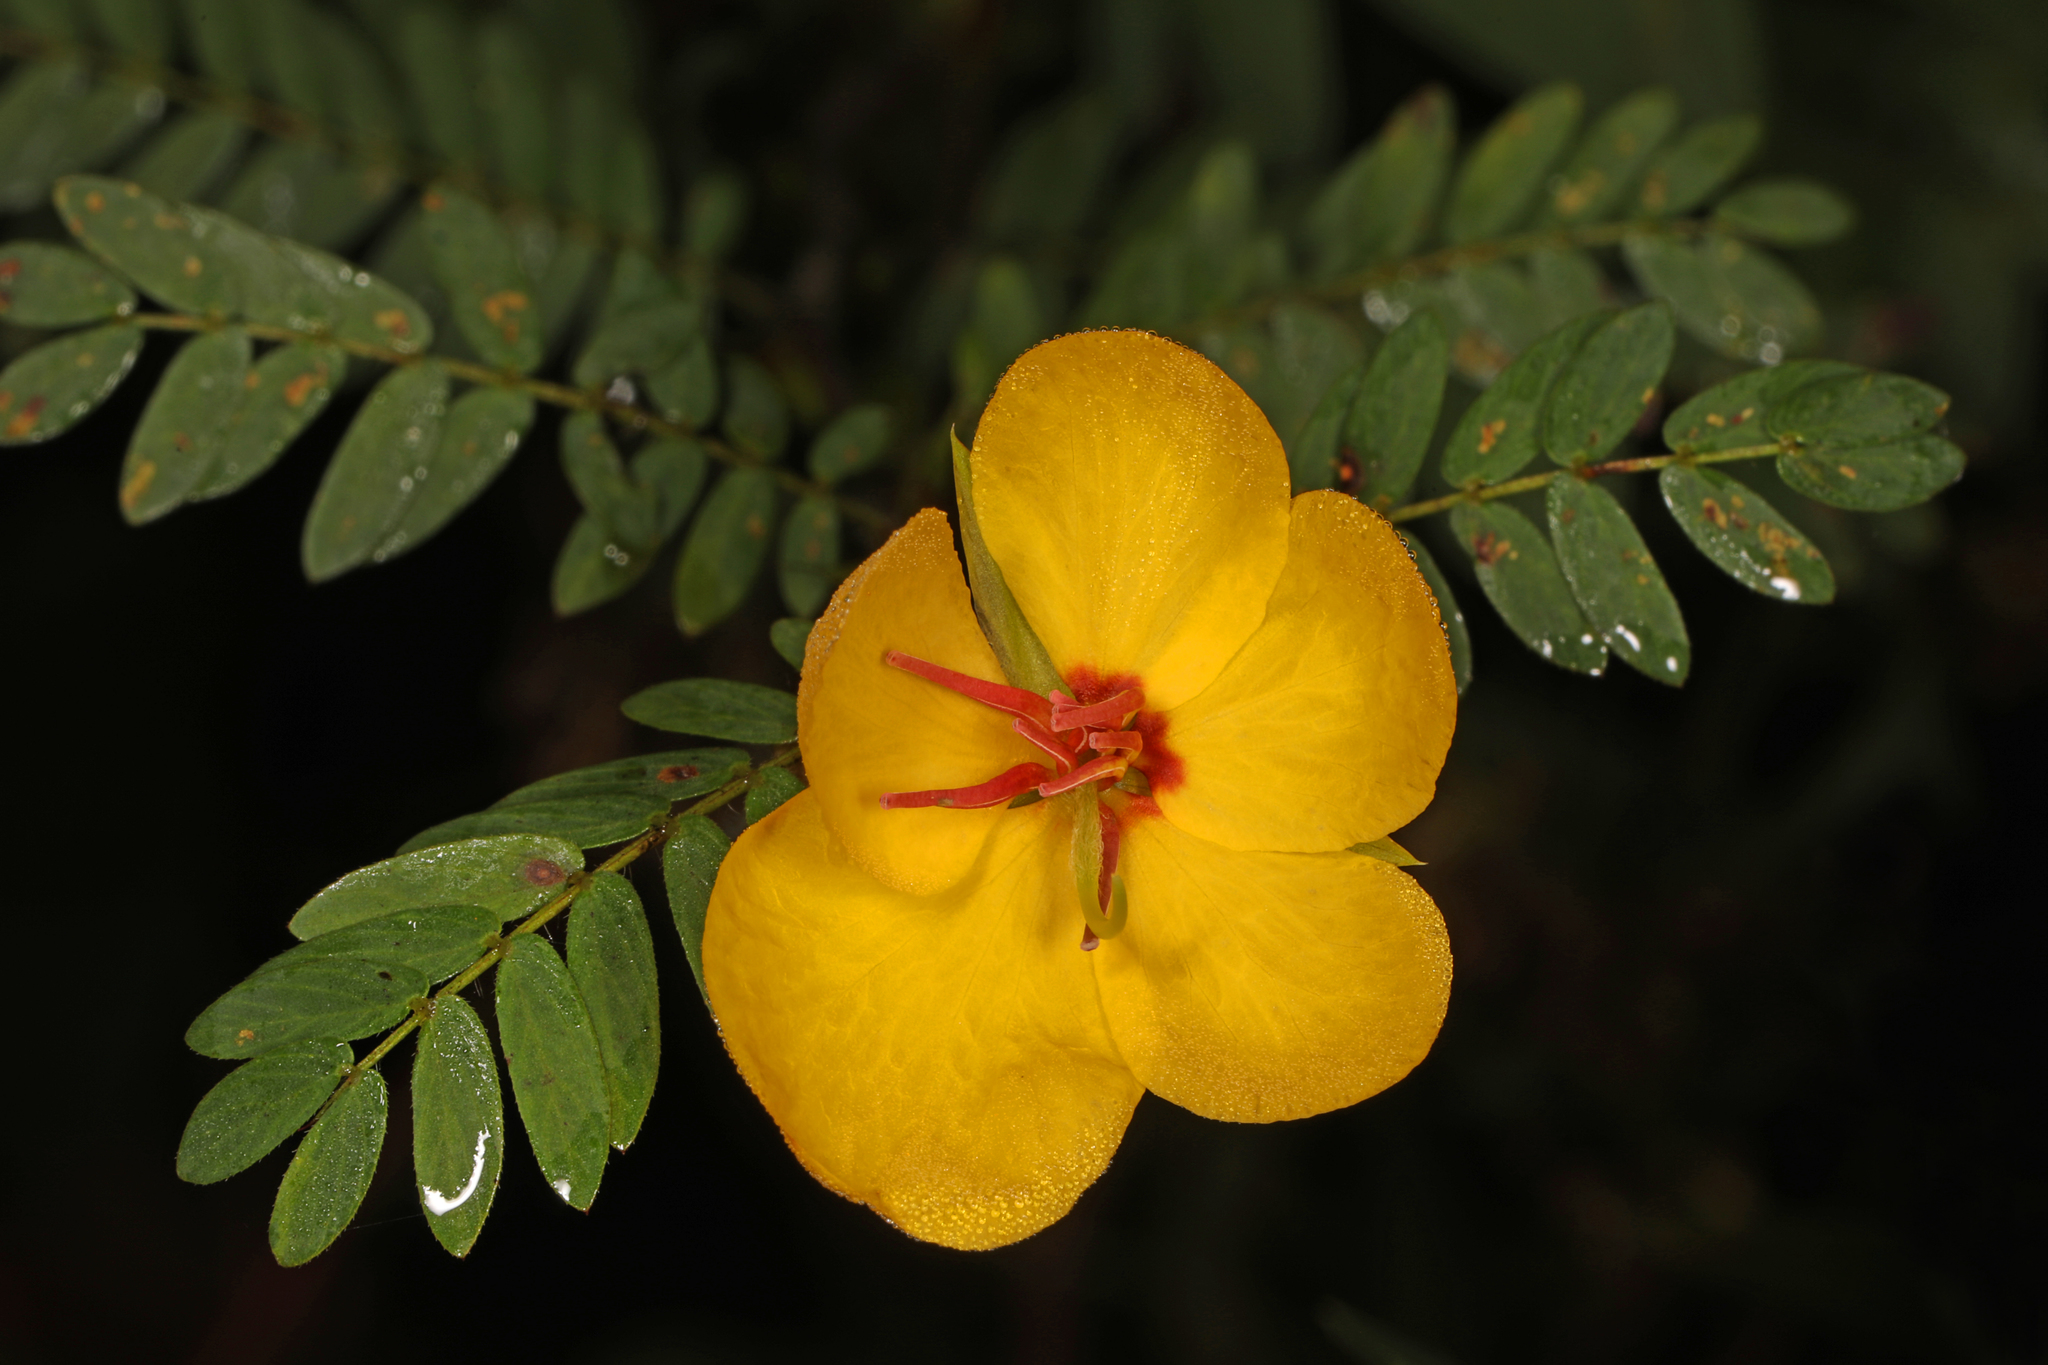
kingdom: Plantae
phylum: Tracheophyta
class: Magnoliopsida
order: Fabales
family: Fabaceae
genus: Chamaecrista
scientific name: Chamaecrista fasciculata
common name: Golden cassia
